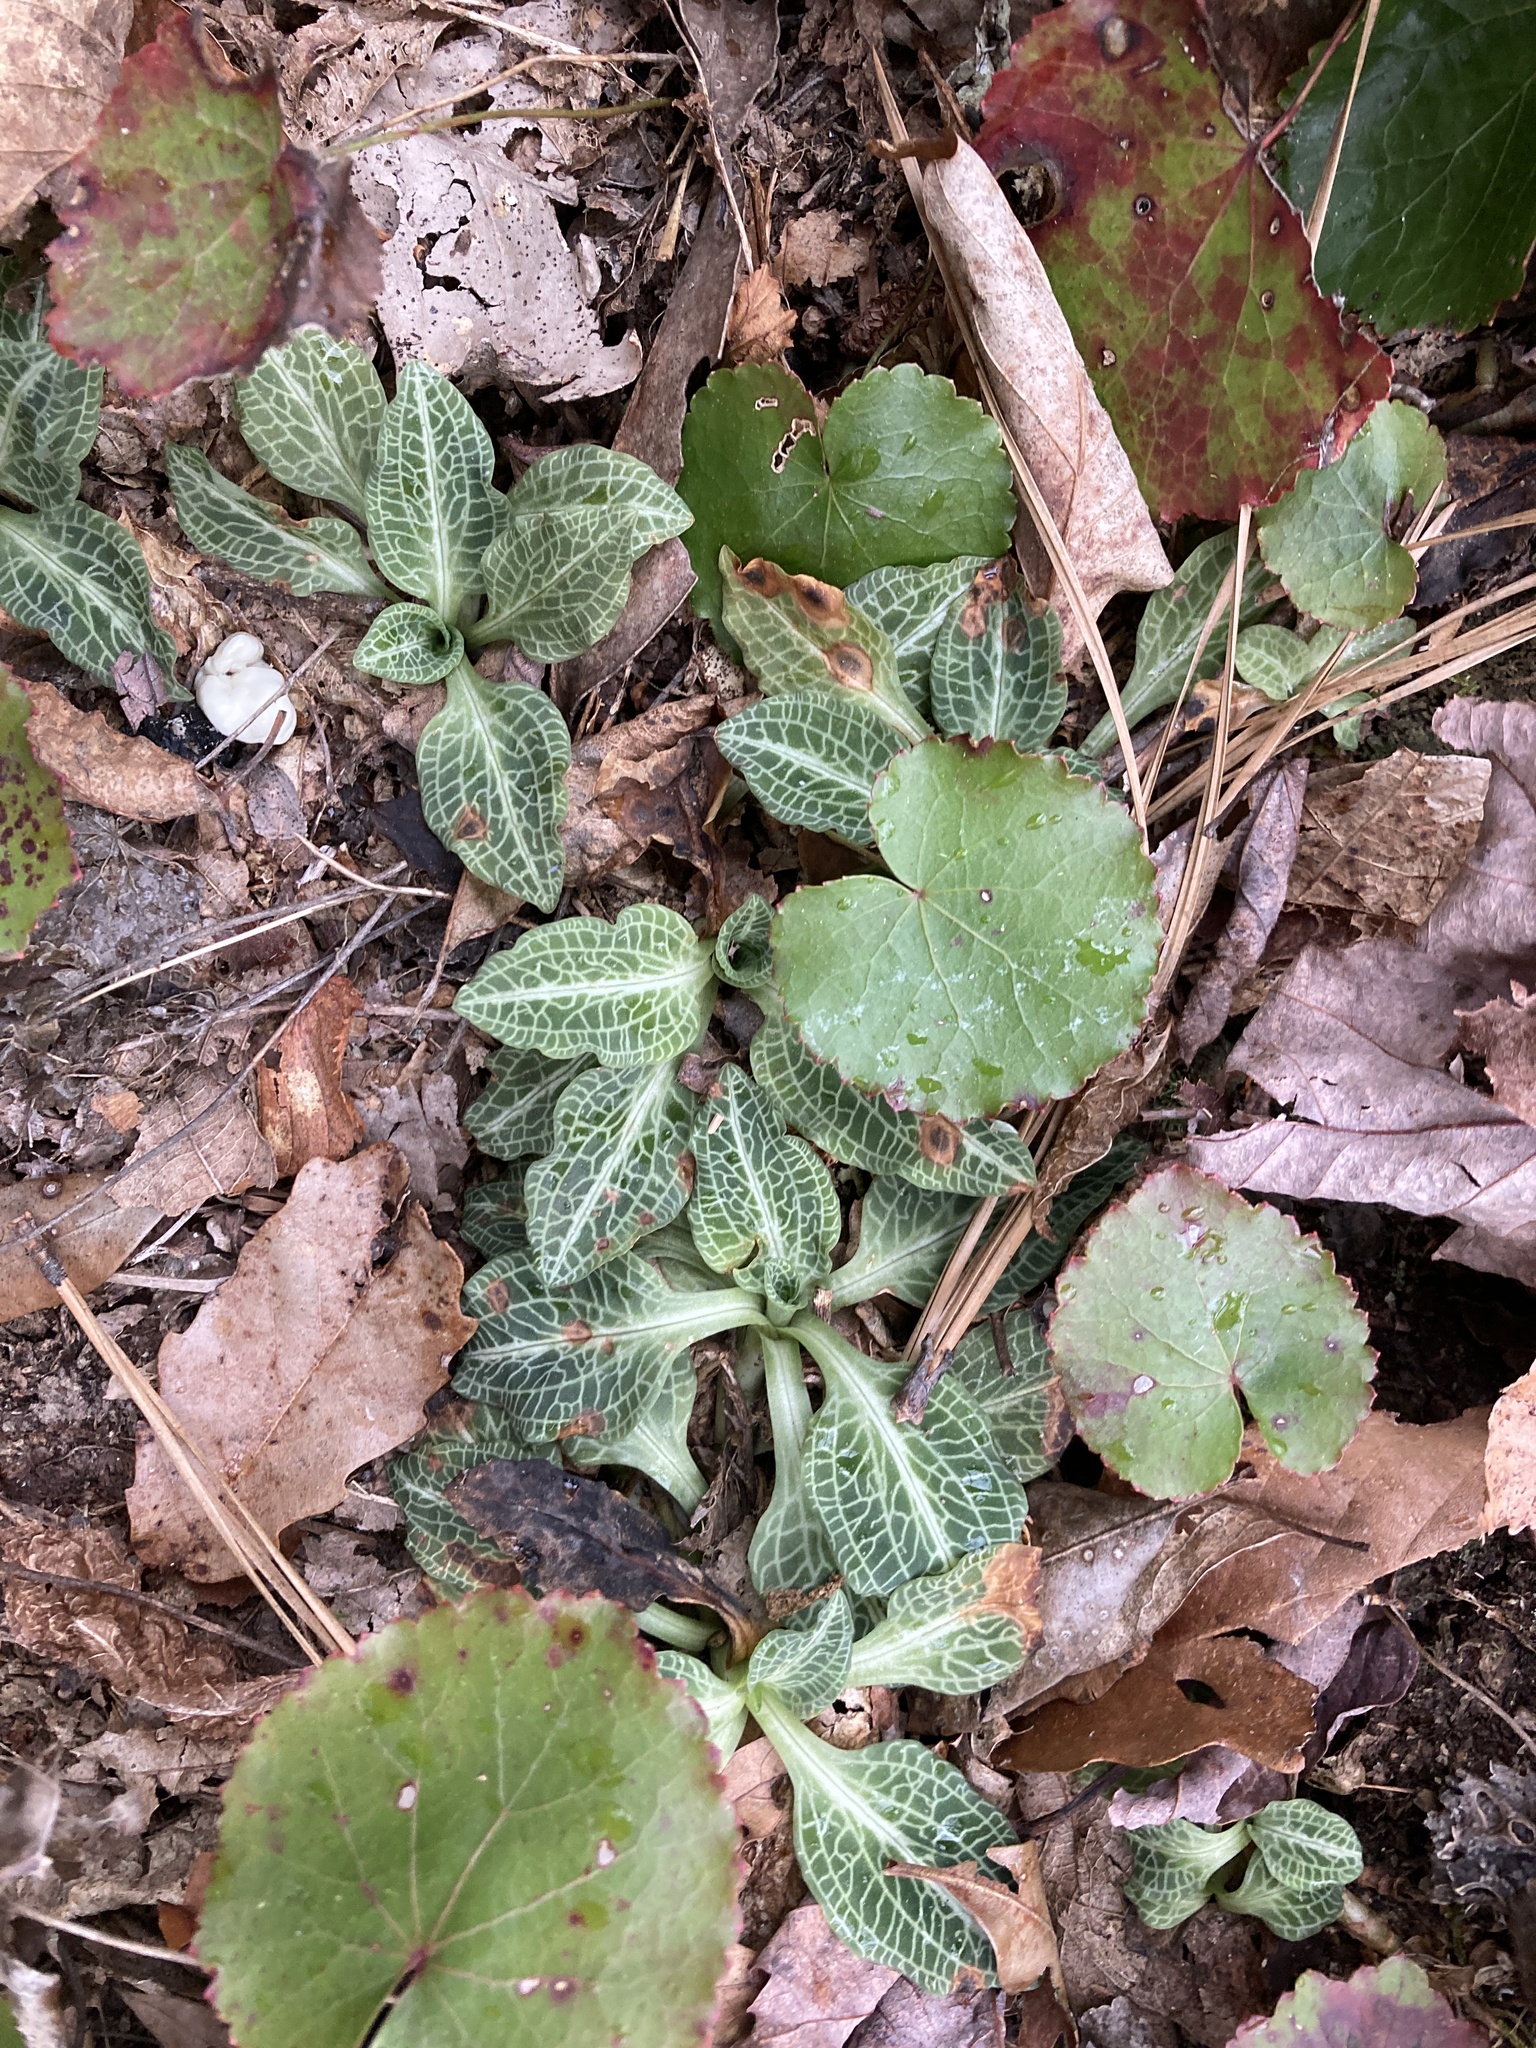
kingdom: Plantae
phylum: Tracheophyta
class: Liliopsida
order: Asparagales
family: Orchidaceae
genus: Goodyera
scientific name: Goodyera pubescens
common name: Downy rattlesnake-plantain
